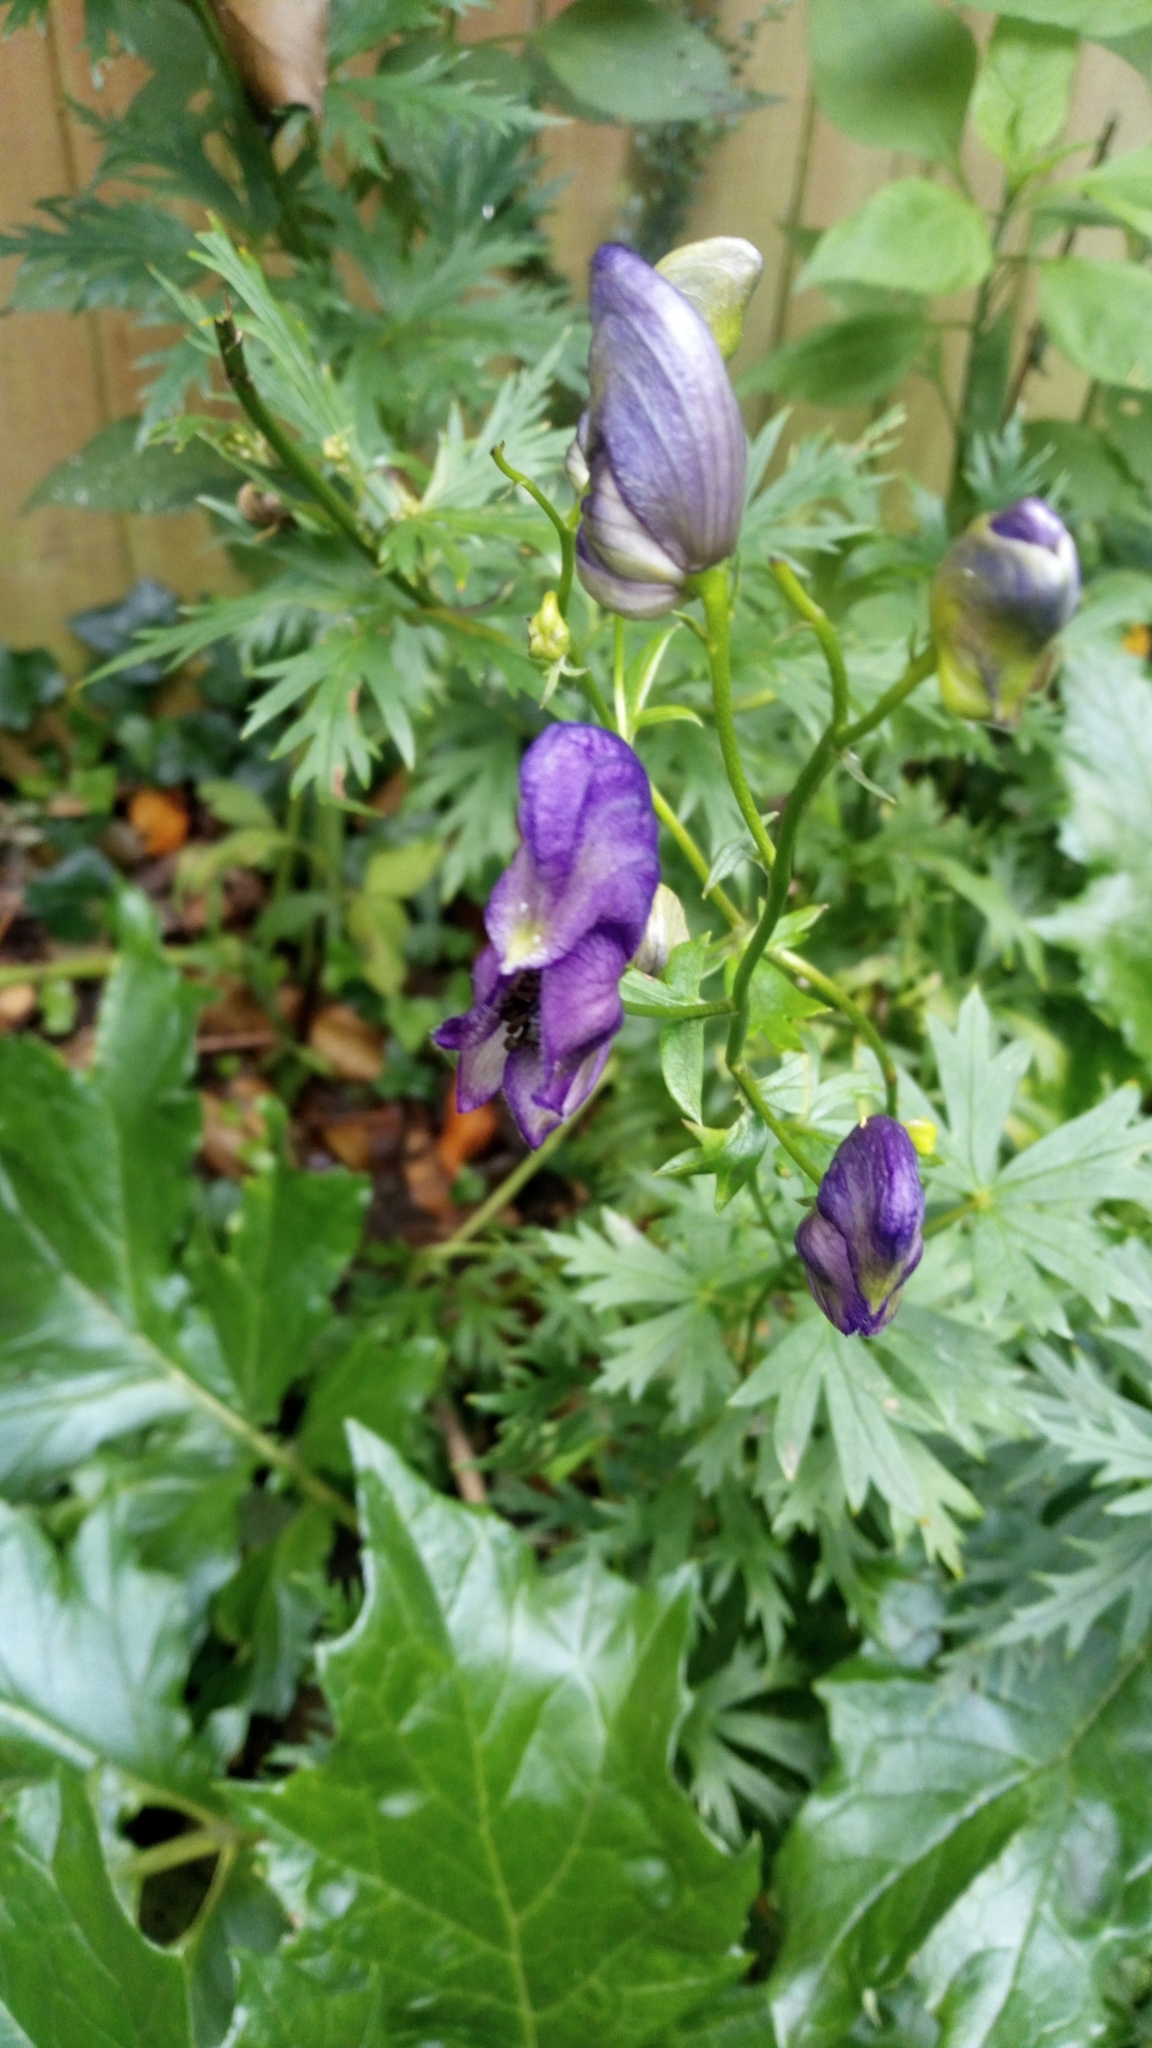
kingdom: Plantae
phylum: Tracheophyta
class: Magnoliopsida
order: Ranunculales
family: Ranunculaceae
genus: Aconitum
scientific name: Aconitum napellus
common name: Garden monkshood
